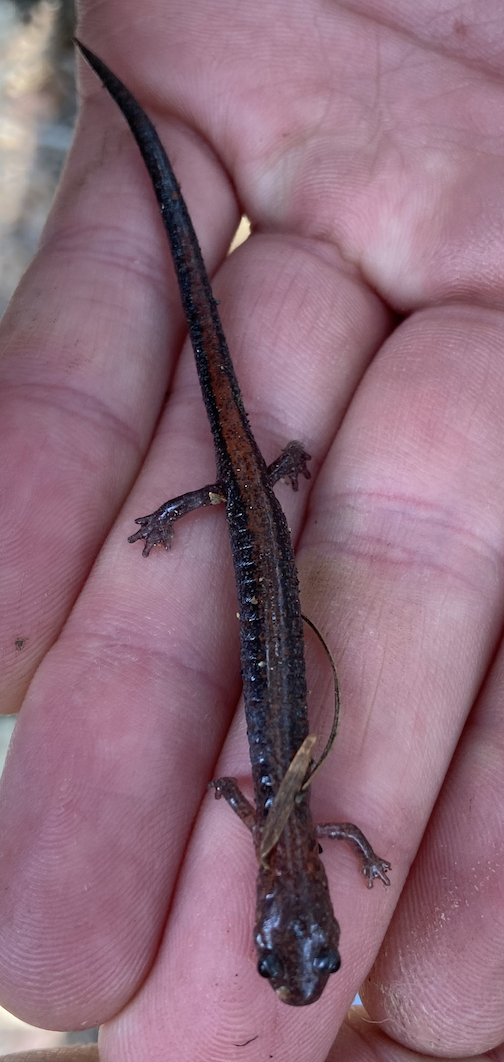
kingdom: Animalia
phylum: Chordata
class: Amphibia
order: Caudata
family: Plethodontidae
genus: Plethodon
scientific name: Plethodon cinereus
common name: Redback salamander
